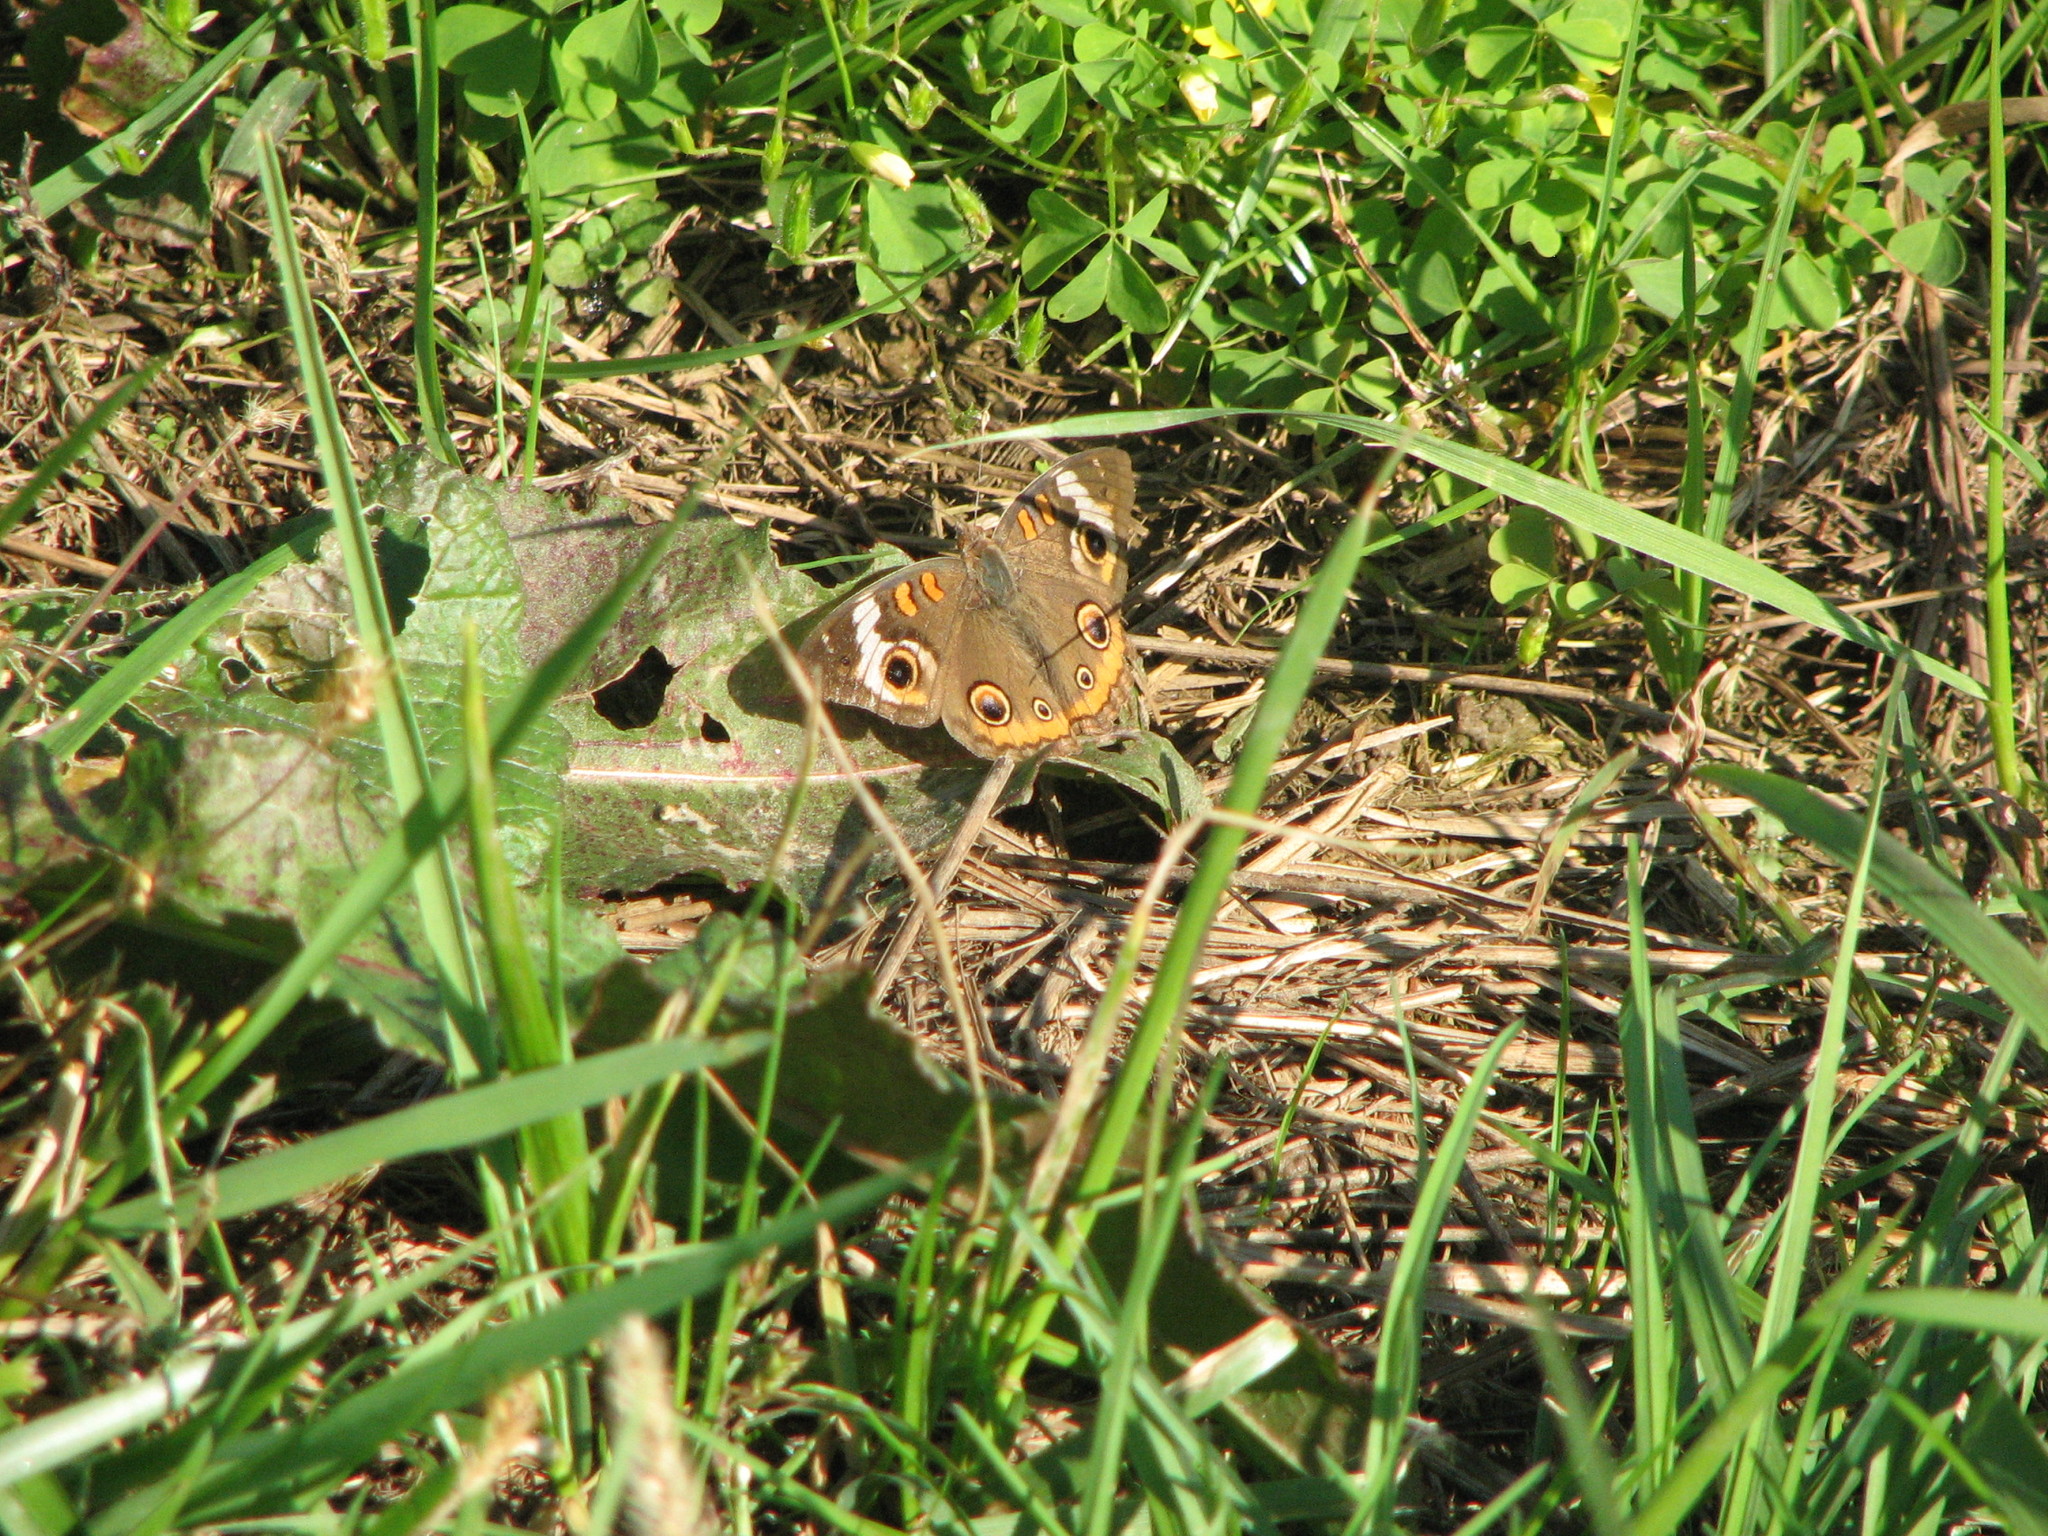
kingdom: Animalia
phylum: Arthropoda
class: Insecta
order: Lepidoptera
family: Nymphalidae
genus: Junonia
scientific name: Junonia coenia
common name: Common buckeye
